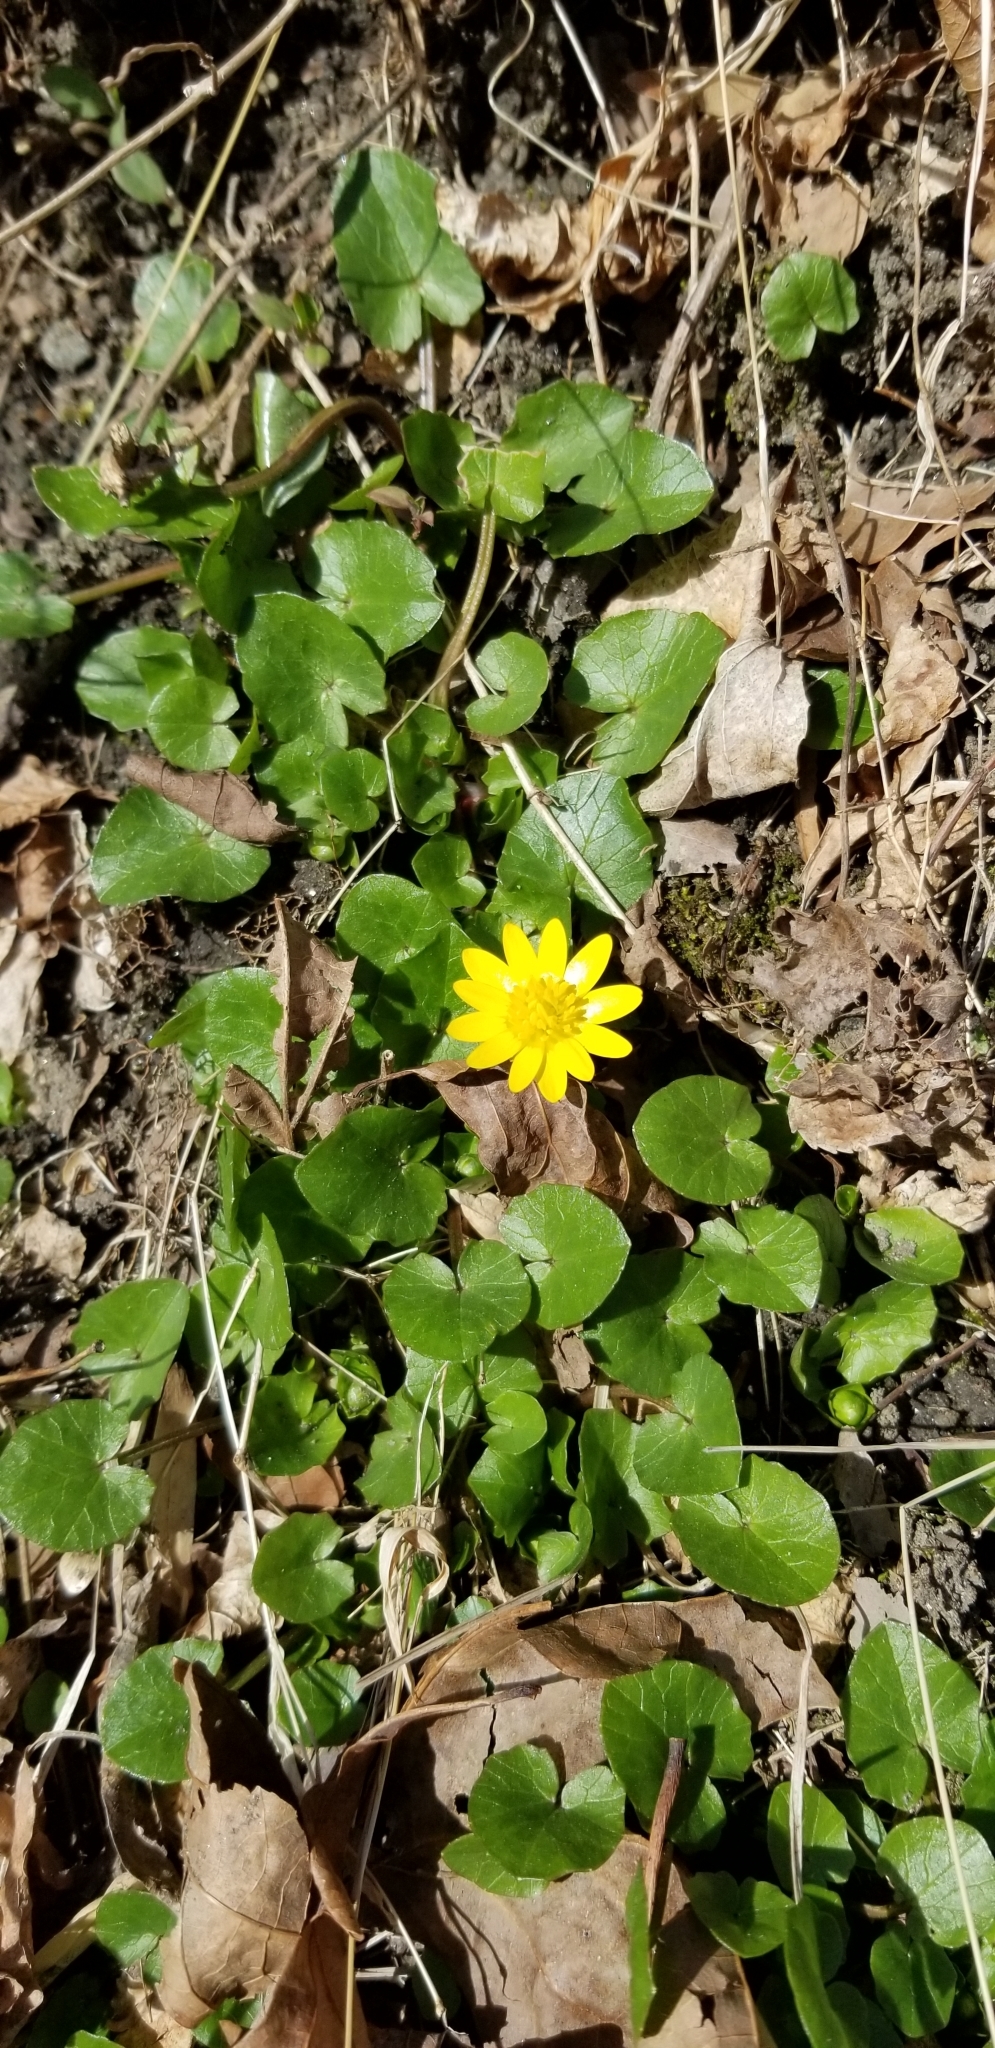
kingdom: Plantae
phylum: Tracheophyta
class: Magnoliopsida
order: Ranunculales
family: Ranunculaceae
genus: Ficaria
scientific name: Ficaria verna
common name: Lesser celandine
